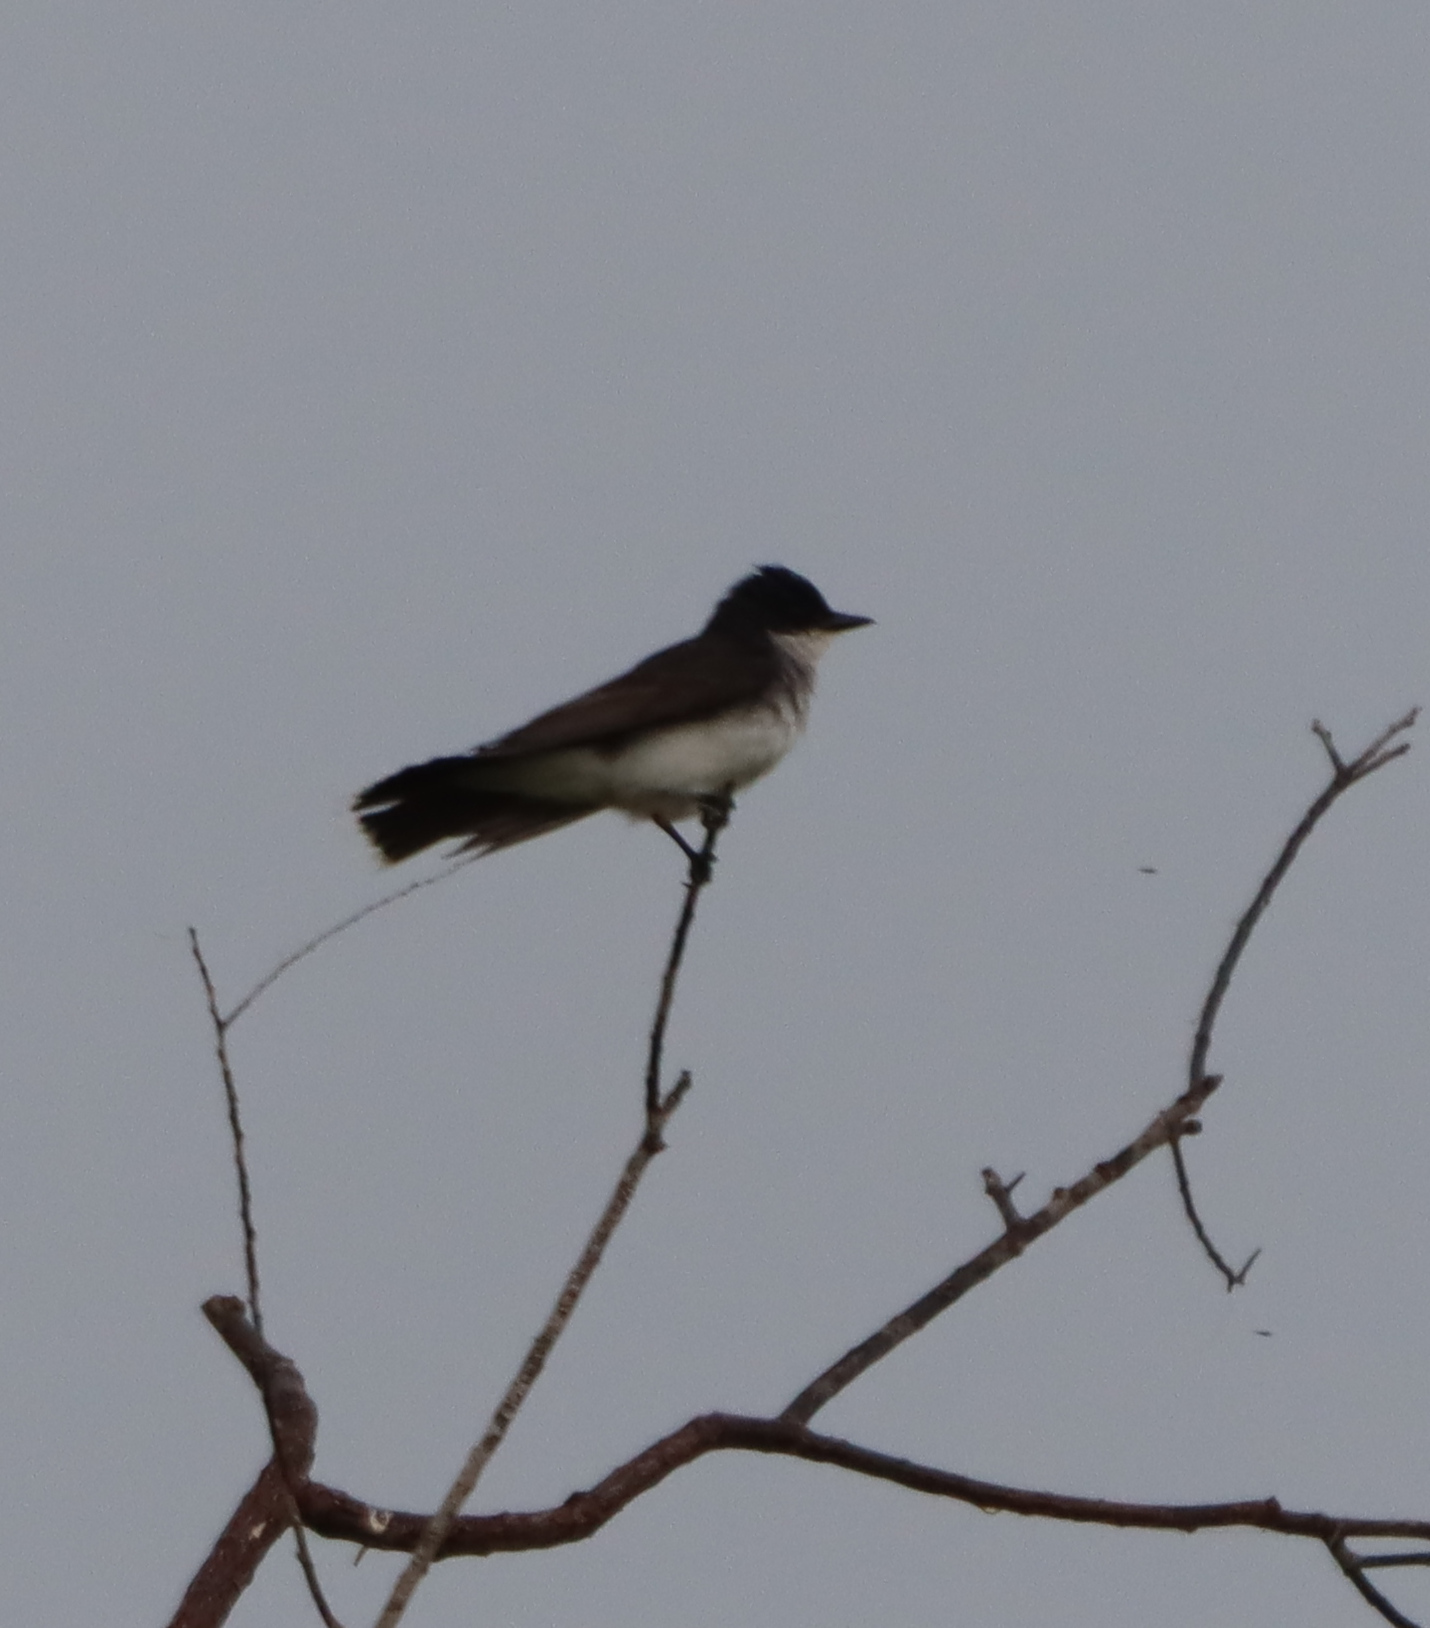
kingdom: Animalia
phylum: Chordata
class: Aves
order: Passeriformes
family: Tyrannidae
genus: Tyrannus
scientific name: Tyrannus tyrannus
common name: Eastern kingbird
